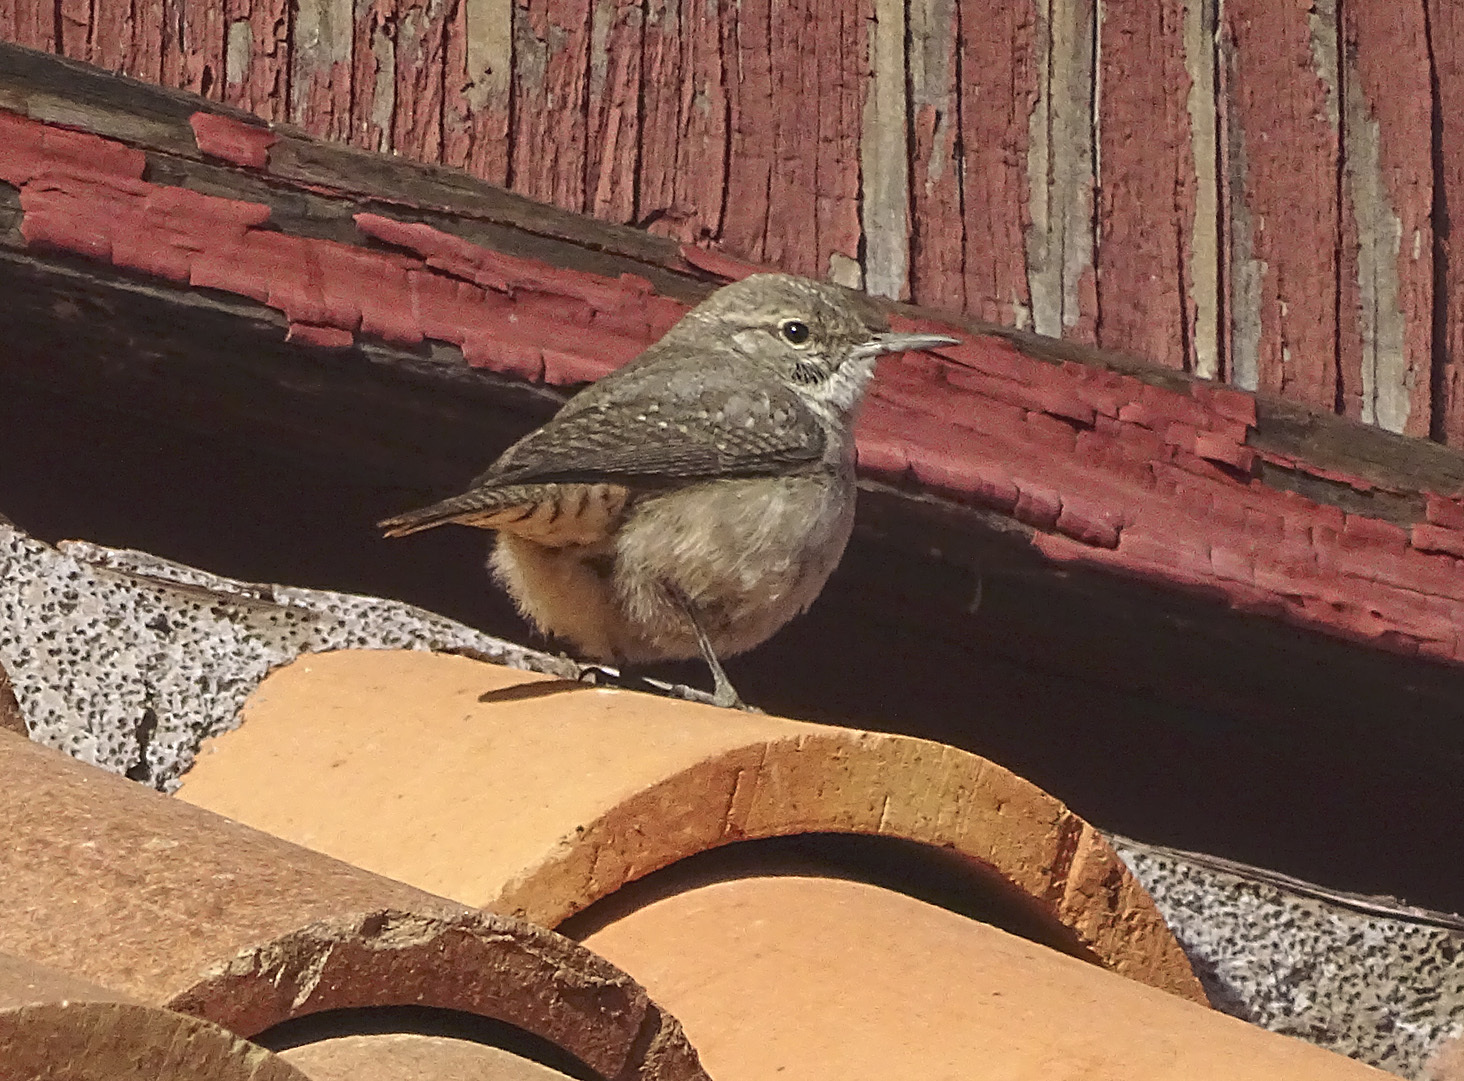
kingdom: Animalia
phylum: Chordata
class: Aves
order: Passeriformes
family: Troglodytidae
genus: Salpinctes
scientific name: Salpinctes obsoletus
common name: Rock wren
